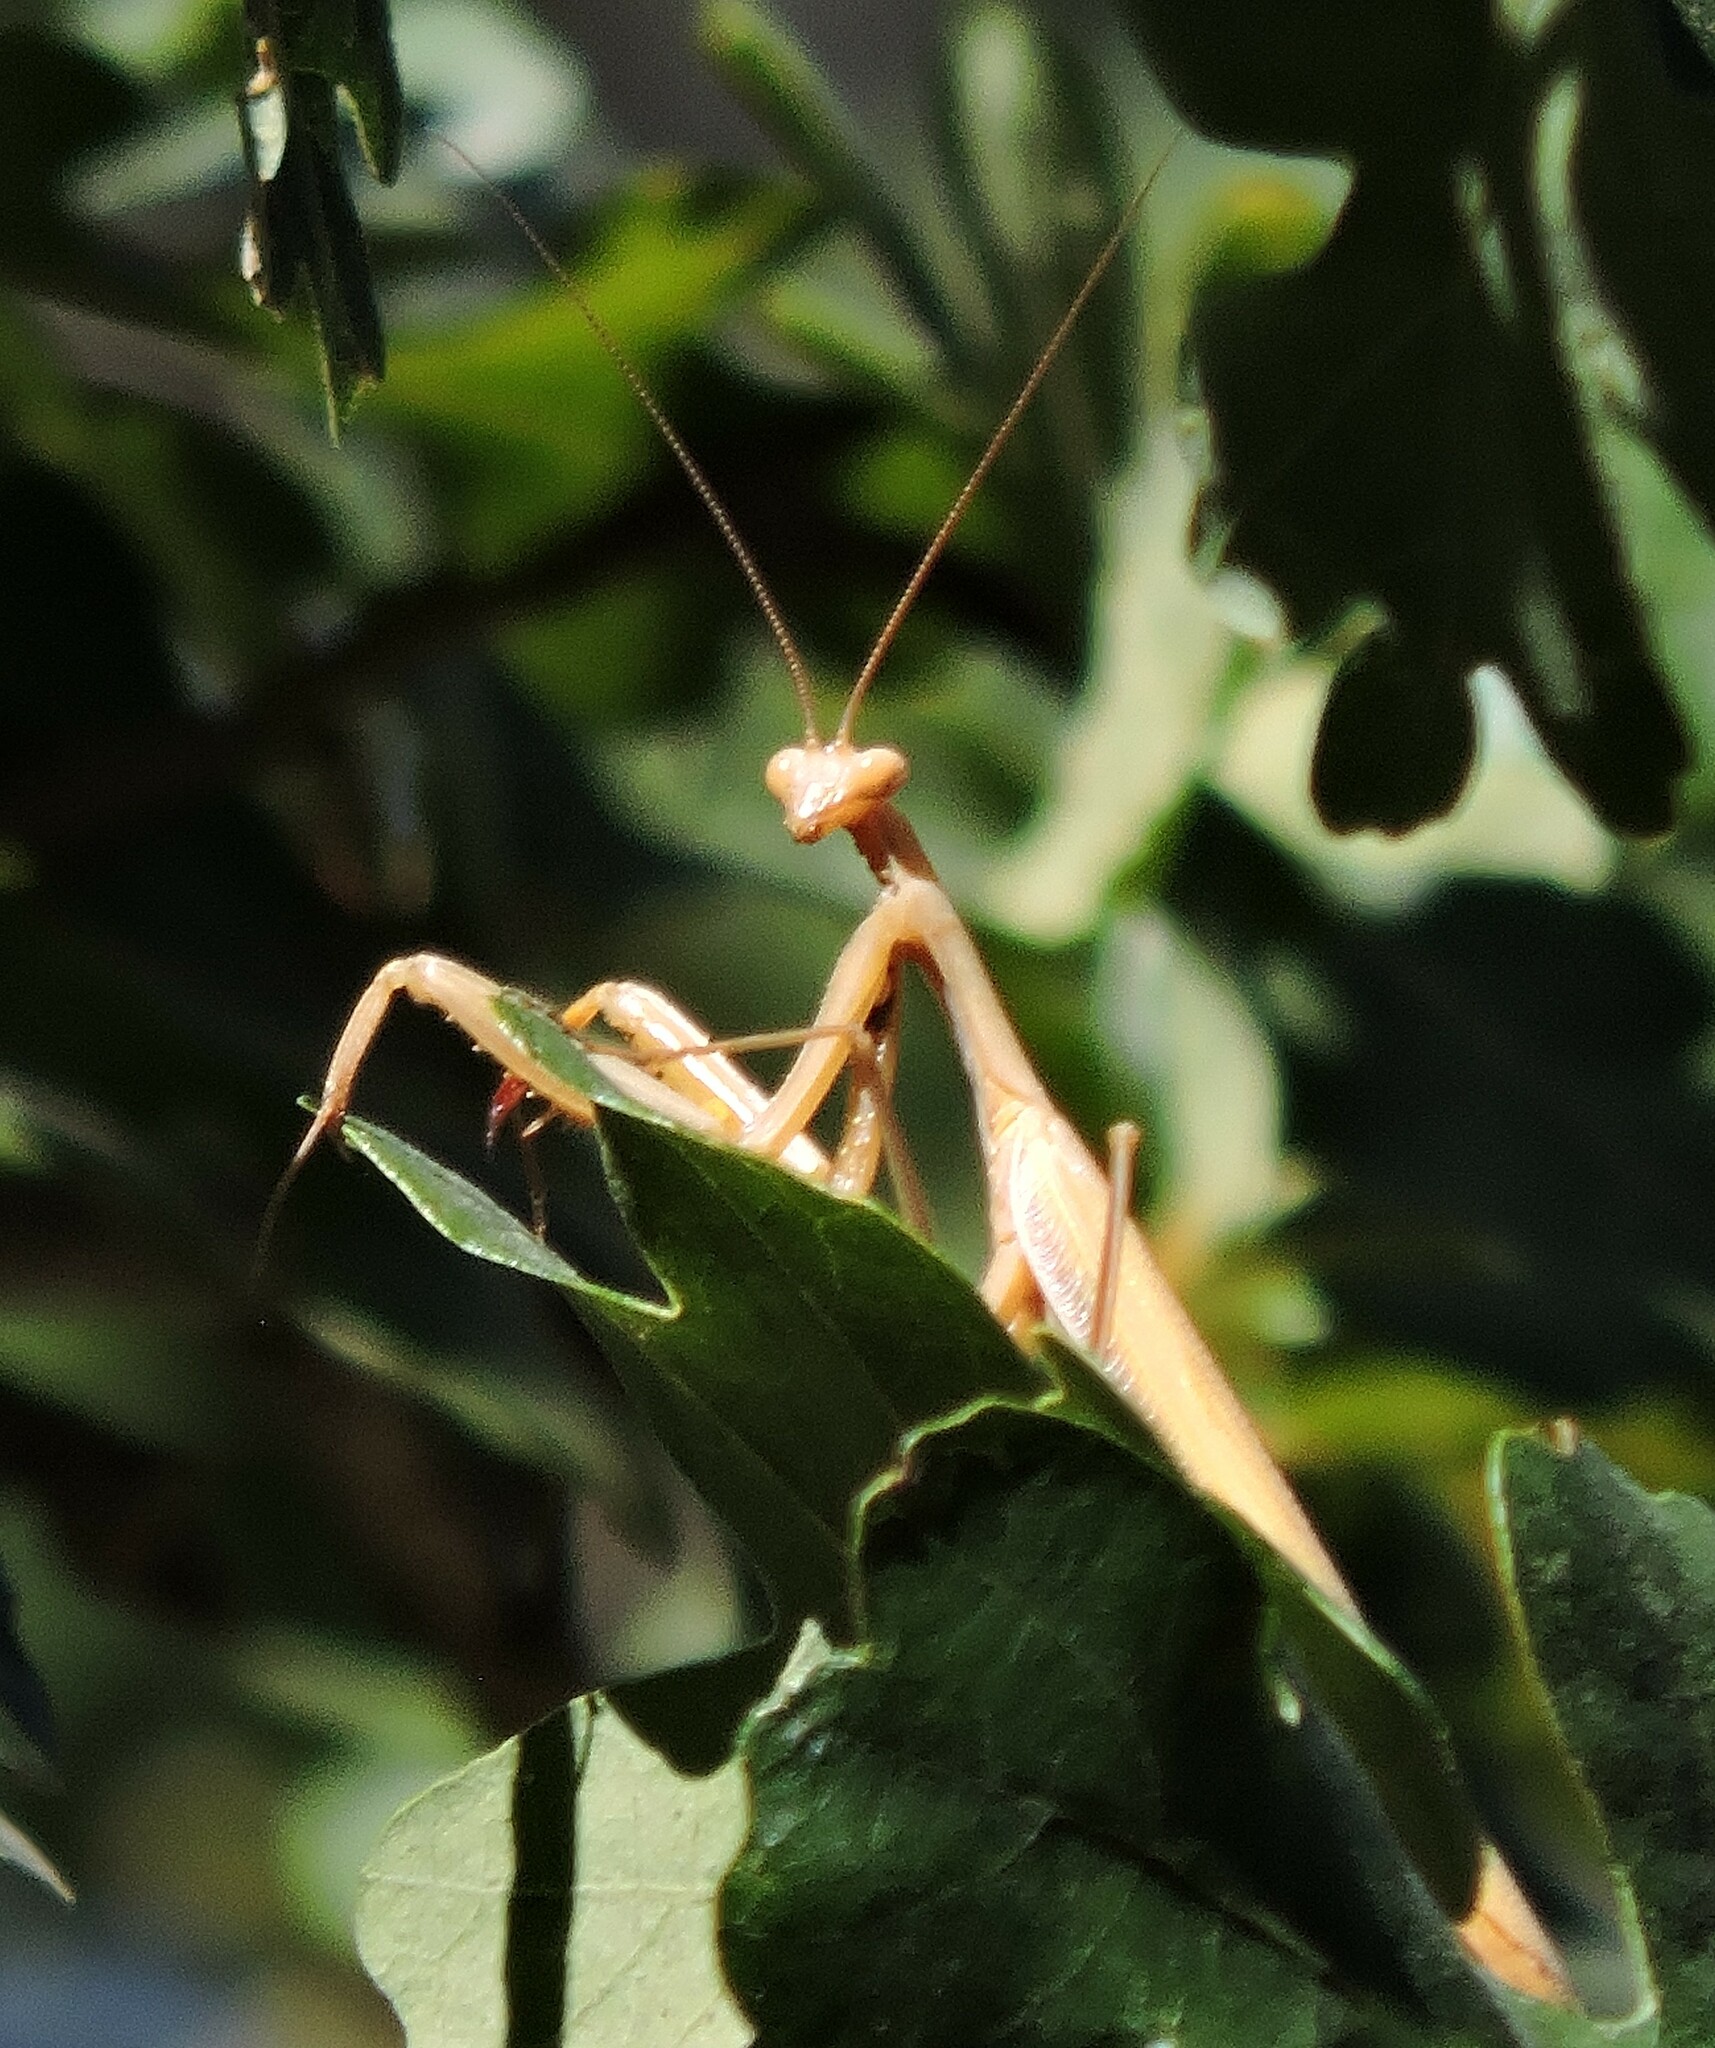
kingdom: Animalia
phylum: Arthropoda
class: Insecta
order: Mantodea
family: Mantidae
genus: Mantis
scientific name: Mantis religiosa
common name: Praying mantis
